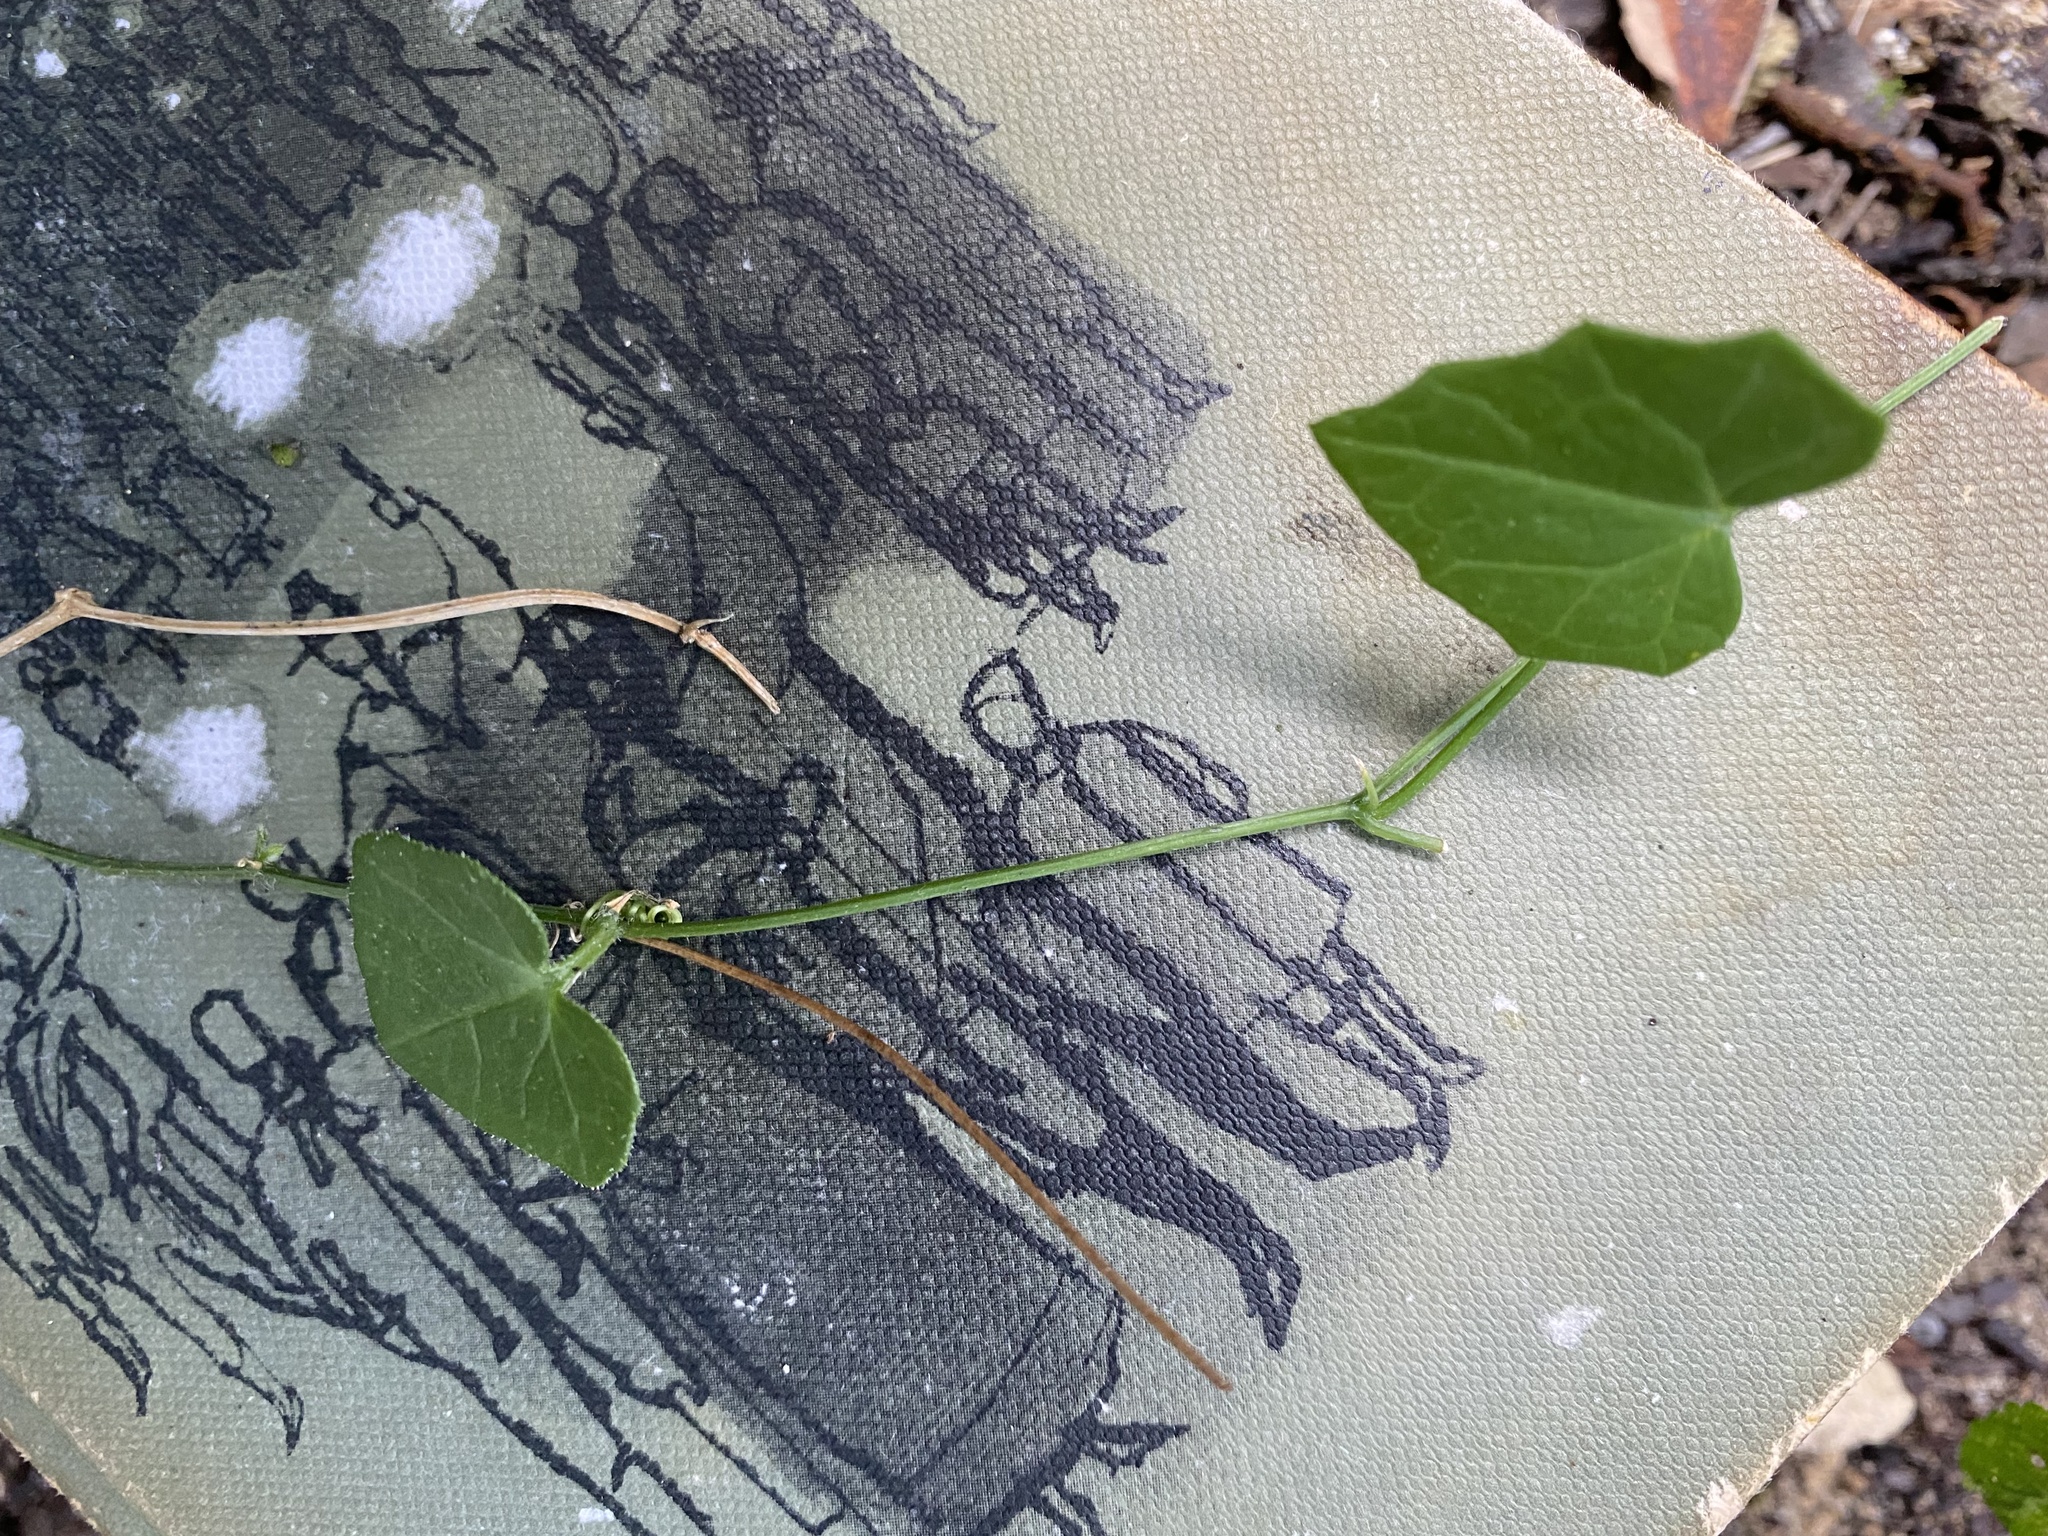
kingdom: Plantae
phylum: Tracheophyta
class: Magnoliopsida
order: Cucurbitales
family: Cucurbitaceae
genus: Zehneria
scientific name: Zehneria scabra
